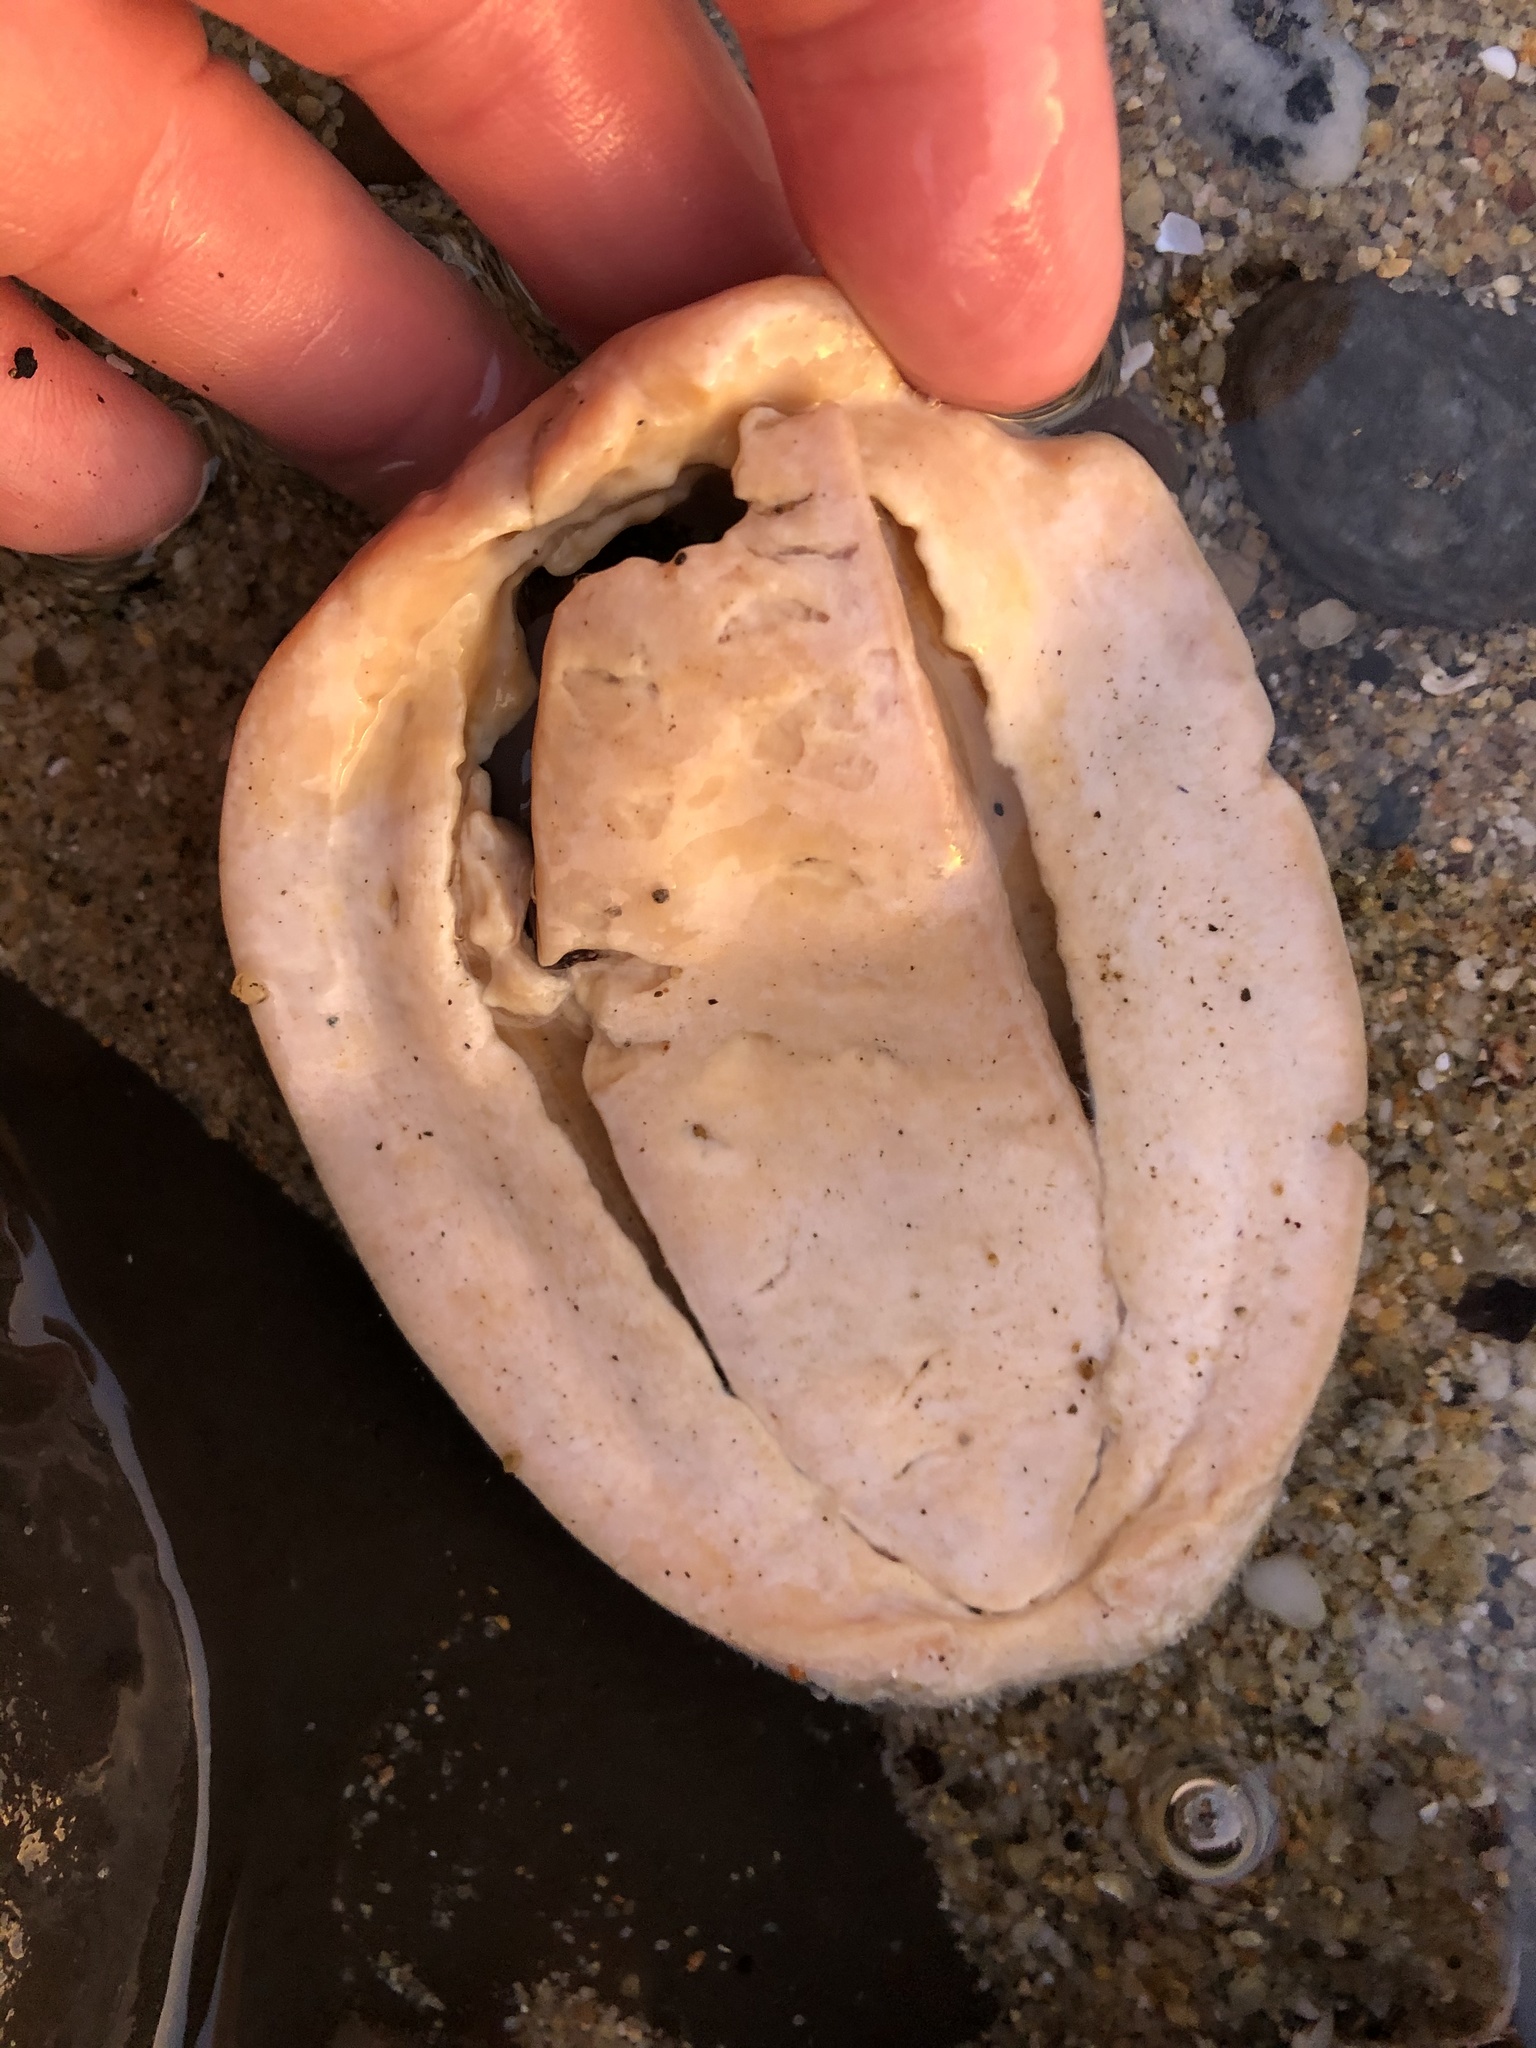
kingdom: Animalia
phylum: Mollusca
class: Polyplacophora
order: Chitonida
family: Acanthochitonidae
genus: Cryptochiton
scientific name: Cryptochiton stelleri
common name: Giant pacific chiton
